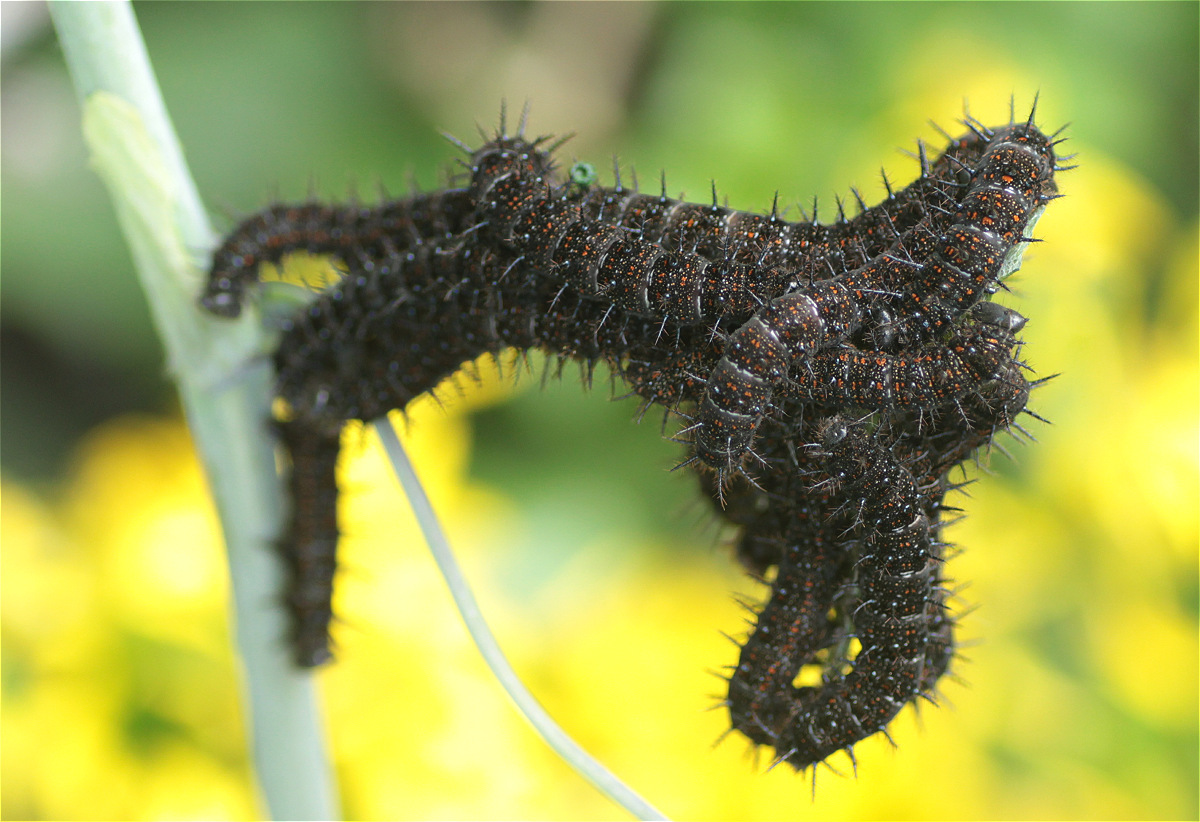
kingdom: Animalia
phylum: Arthropoda
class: Insecta
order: Lepidoptera
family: Nymphalidae
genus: Dione
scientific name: Dione juno
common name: Juno silverspot
